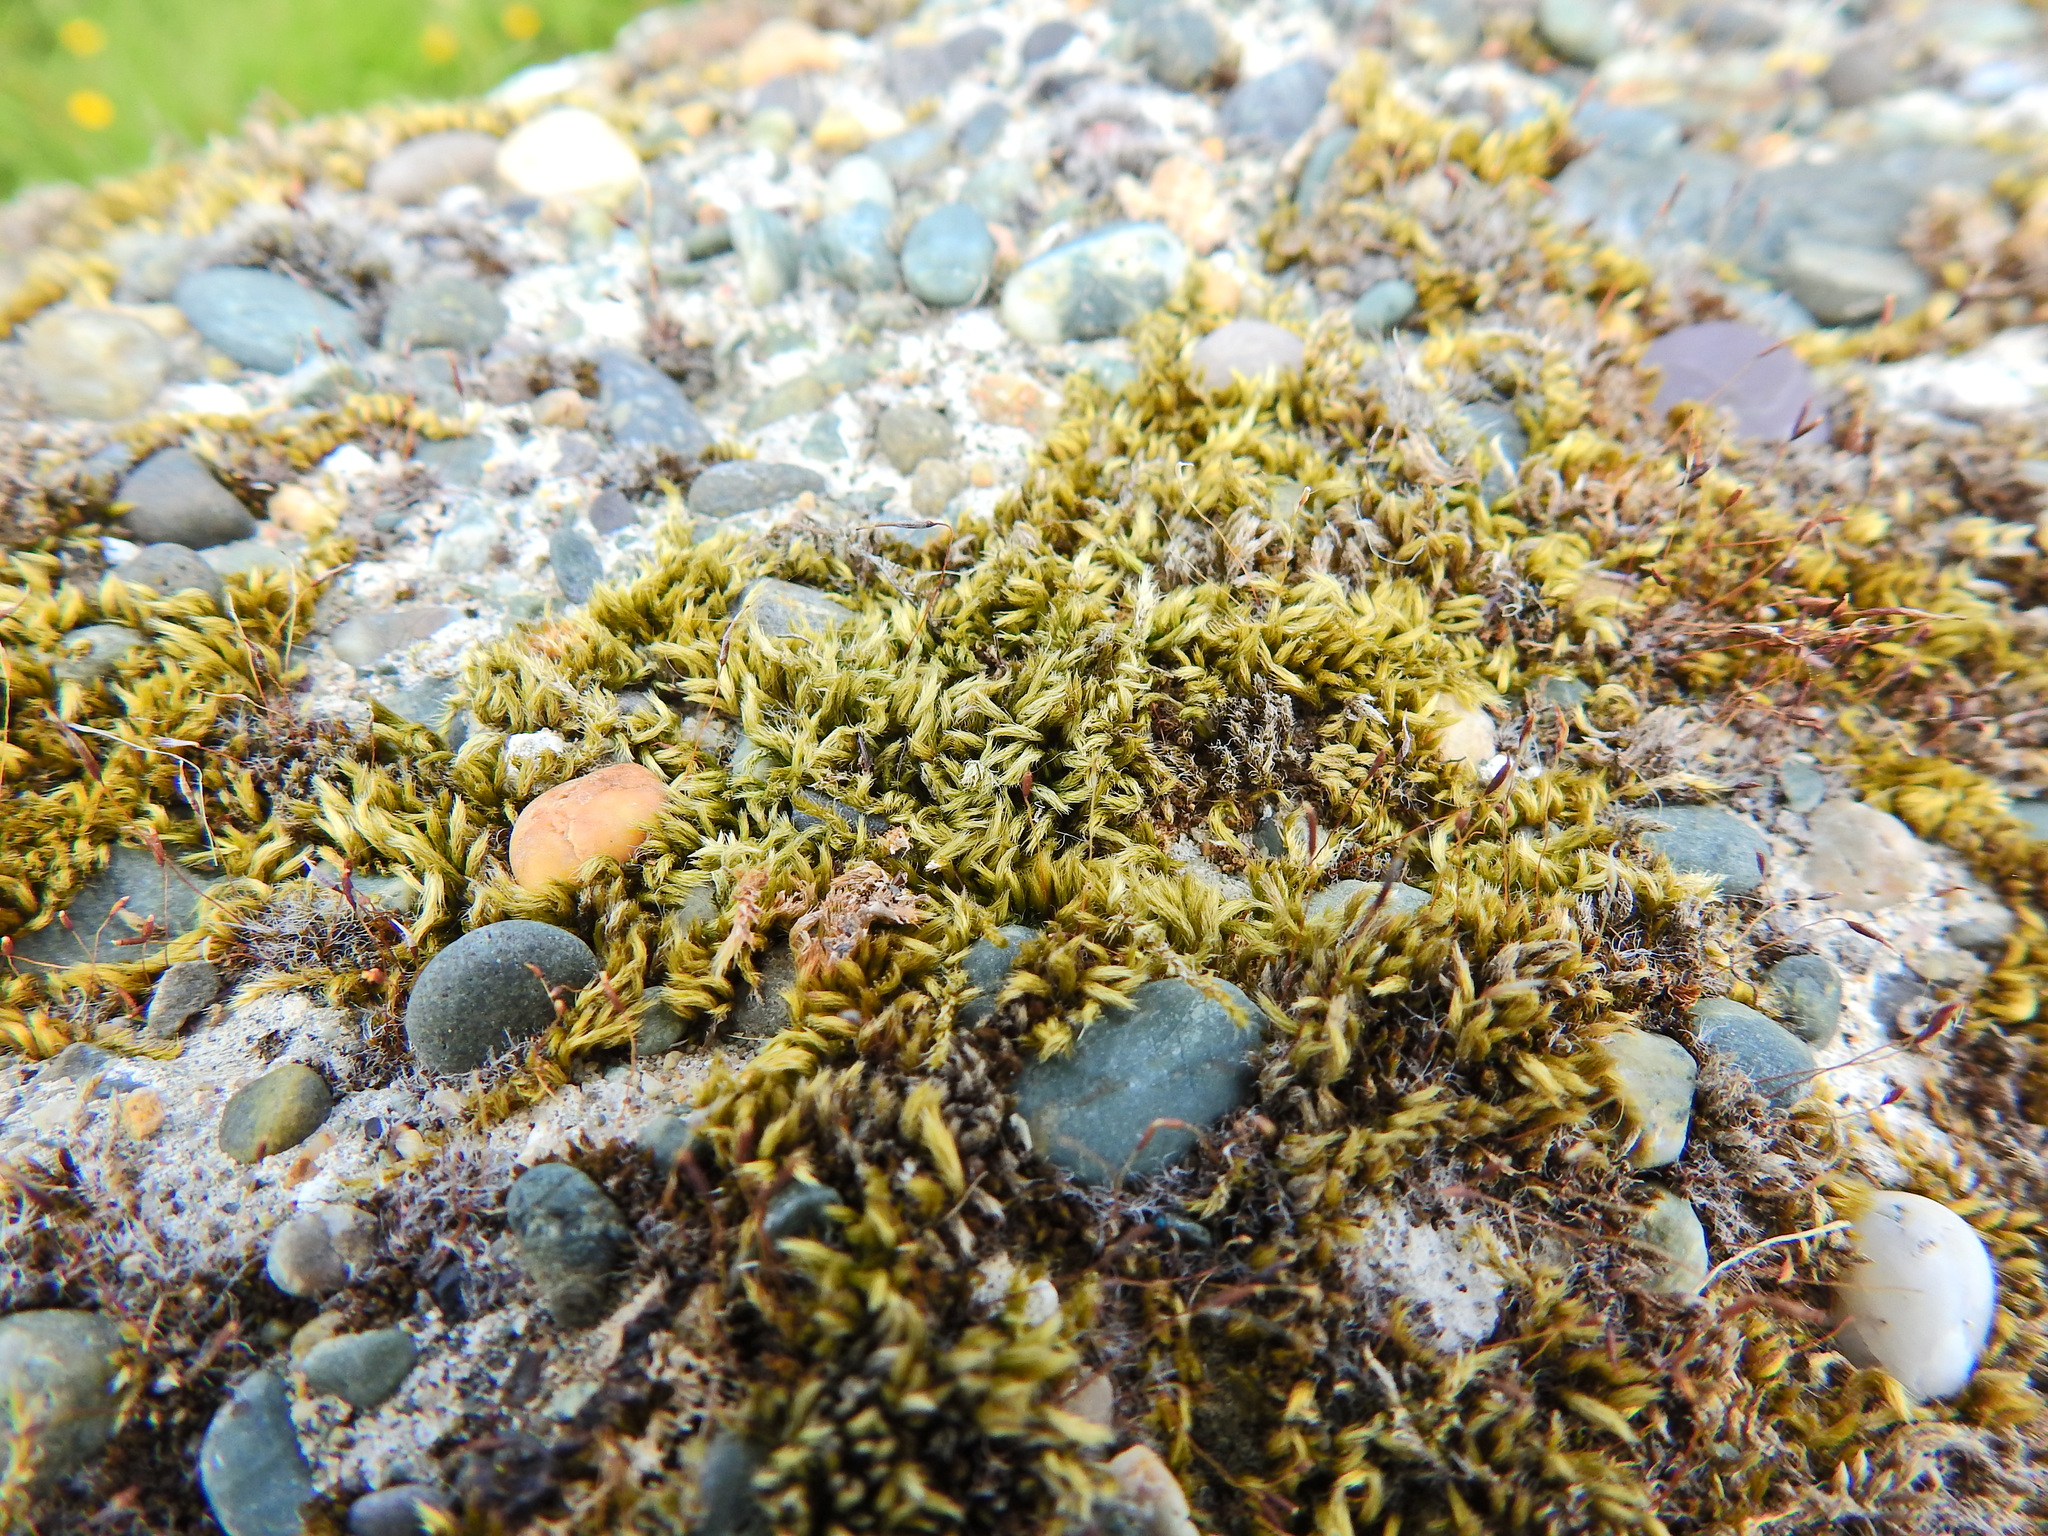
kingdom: Plantae
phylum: Bryophyta
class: Bryopsida
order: Hypnales
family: Brachytheciaceae
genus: Homalothecium
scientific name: Homalothecium sericeum
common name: Silky wall feather-moss
